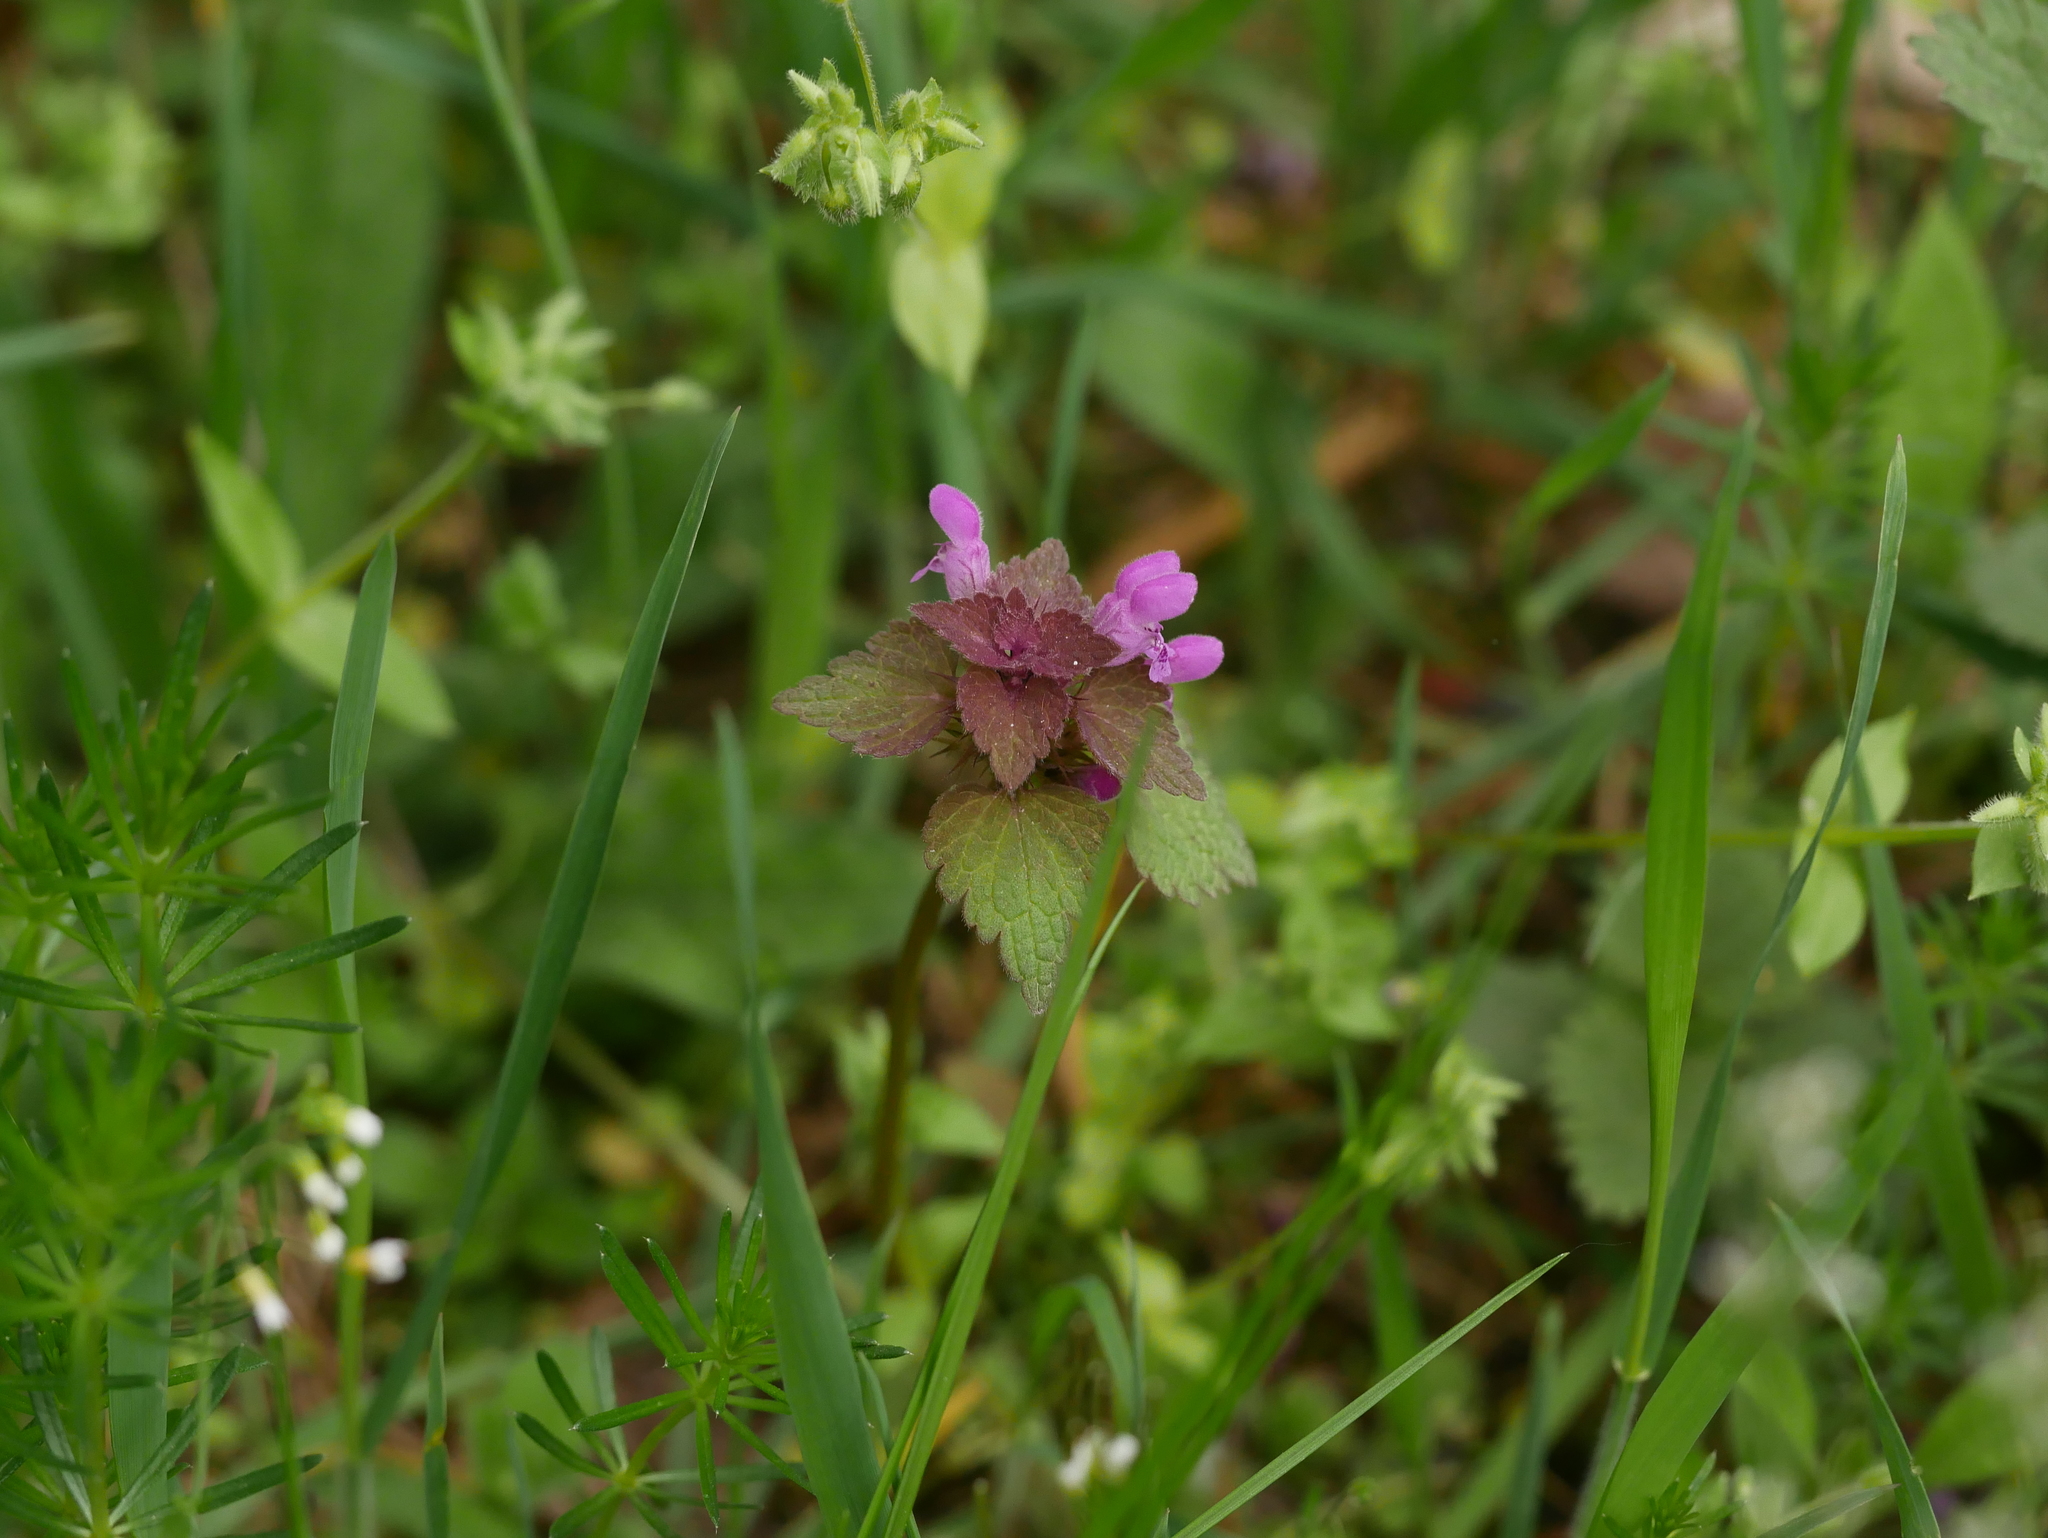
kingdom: Plantae
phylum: Tracheophyta
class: Magnoliopsida
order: Lamiales
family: Lamiaceae
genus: Lamium
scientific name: Lamium purpureum
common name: Red dead-nettle
